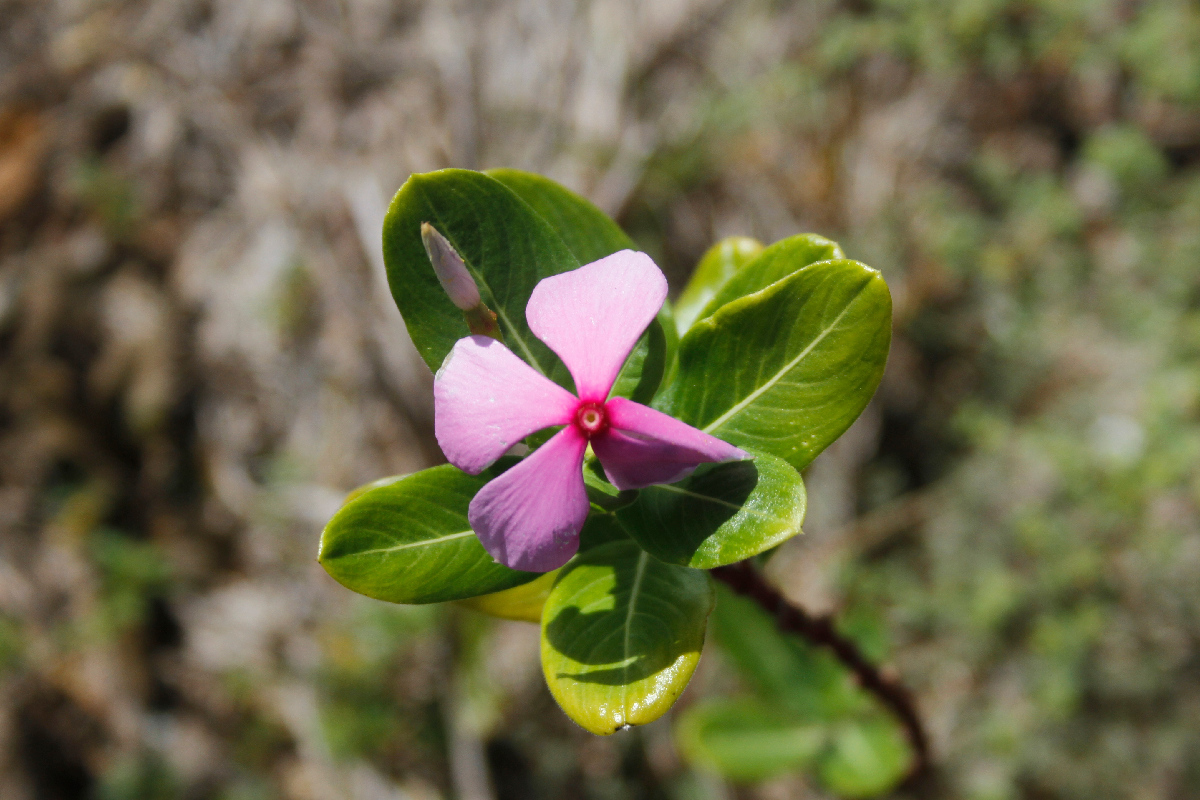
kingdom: Plantae
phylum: Tracheophyta
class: Magnoliopsida
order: Gentianales
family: Apocynaceae
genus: Catharanthus
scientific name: Catharanthus roseus
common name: Madagascar periwinkle
